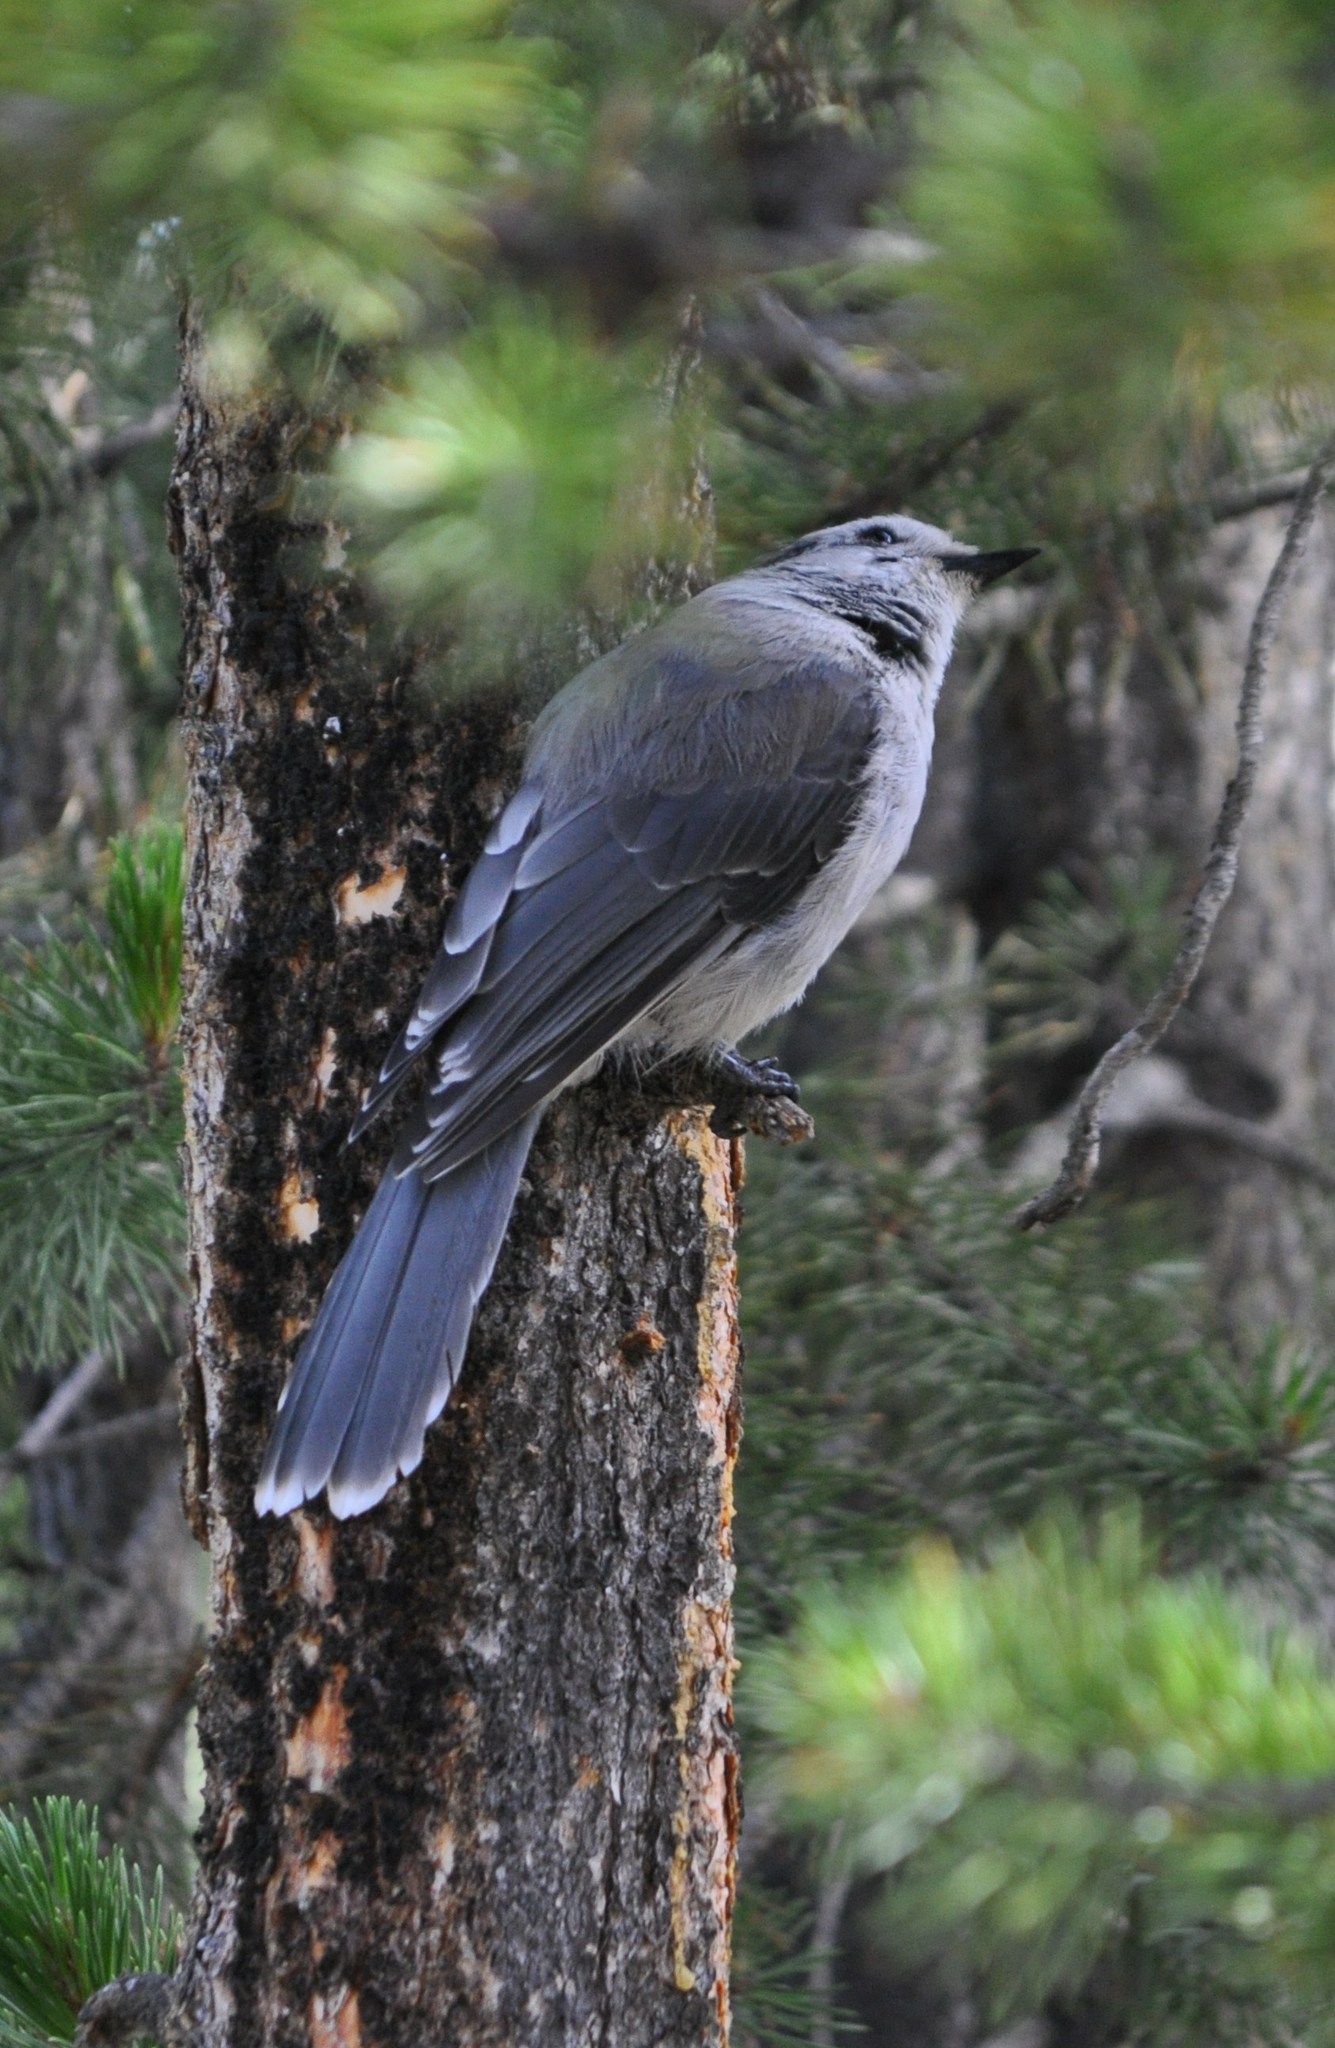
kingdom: Animalia
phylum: Chordata
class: Aves
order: Passeriformes
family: Corvidae
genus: Perisoreus
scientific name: Perisoreus canadensis
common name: Gray jay
